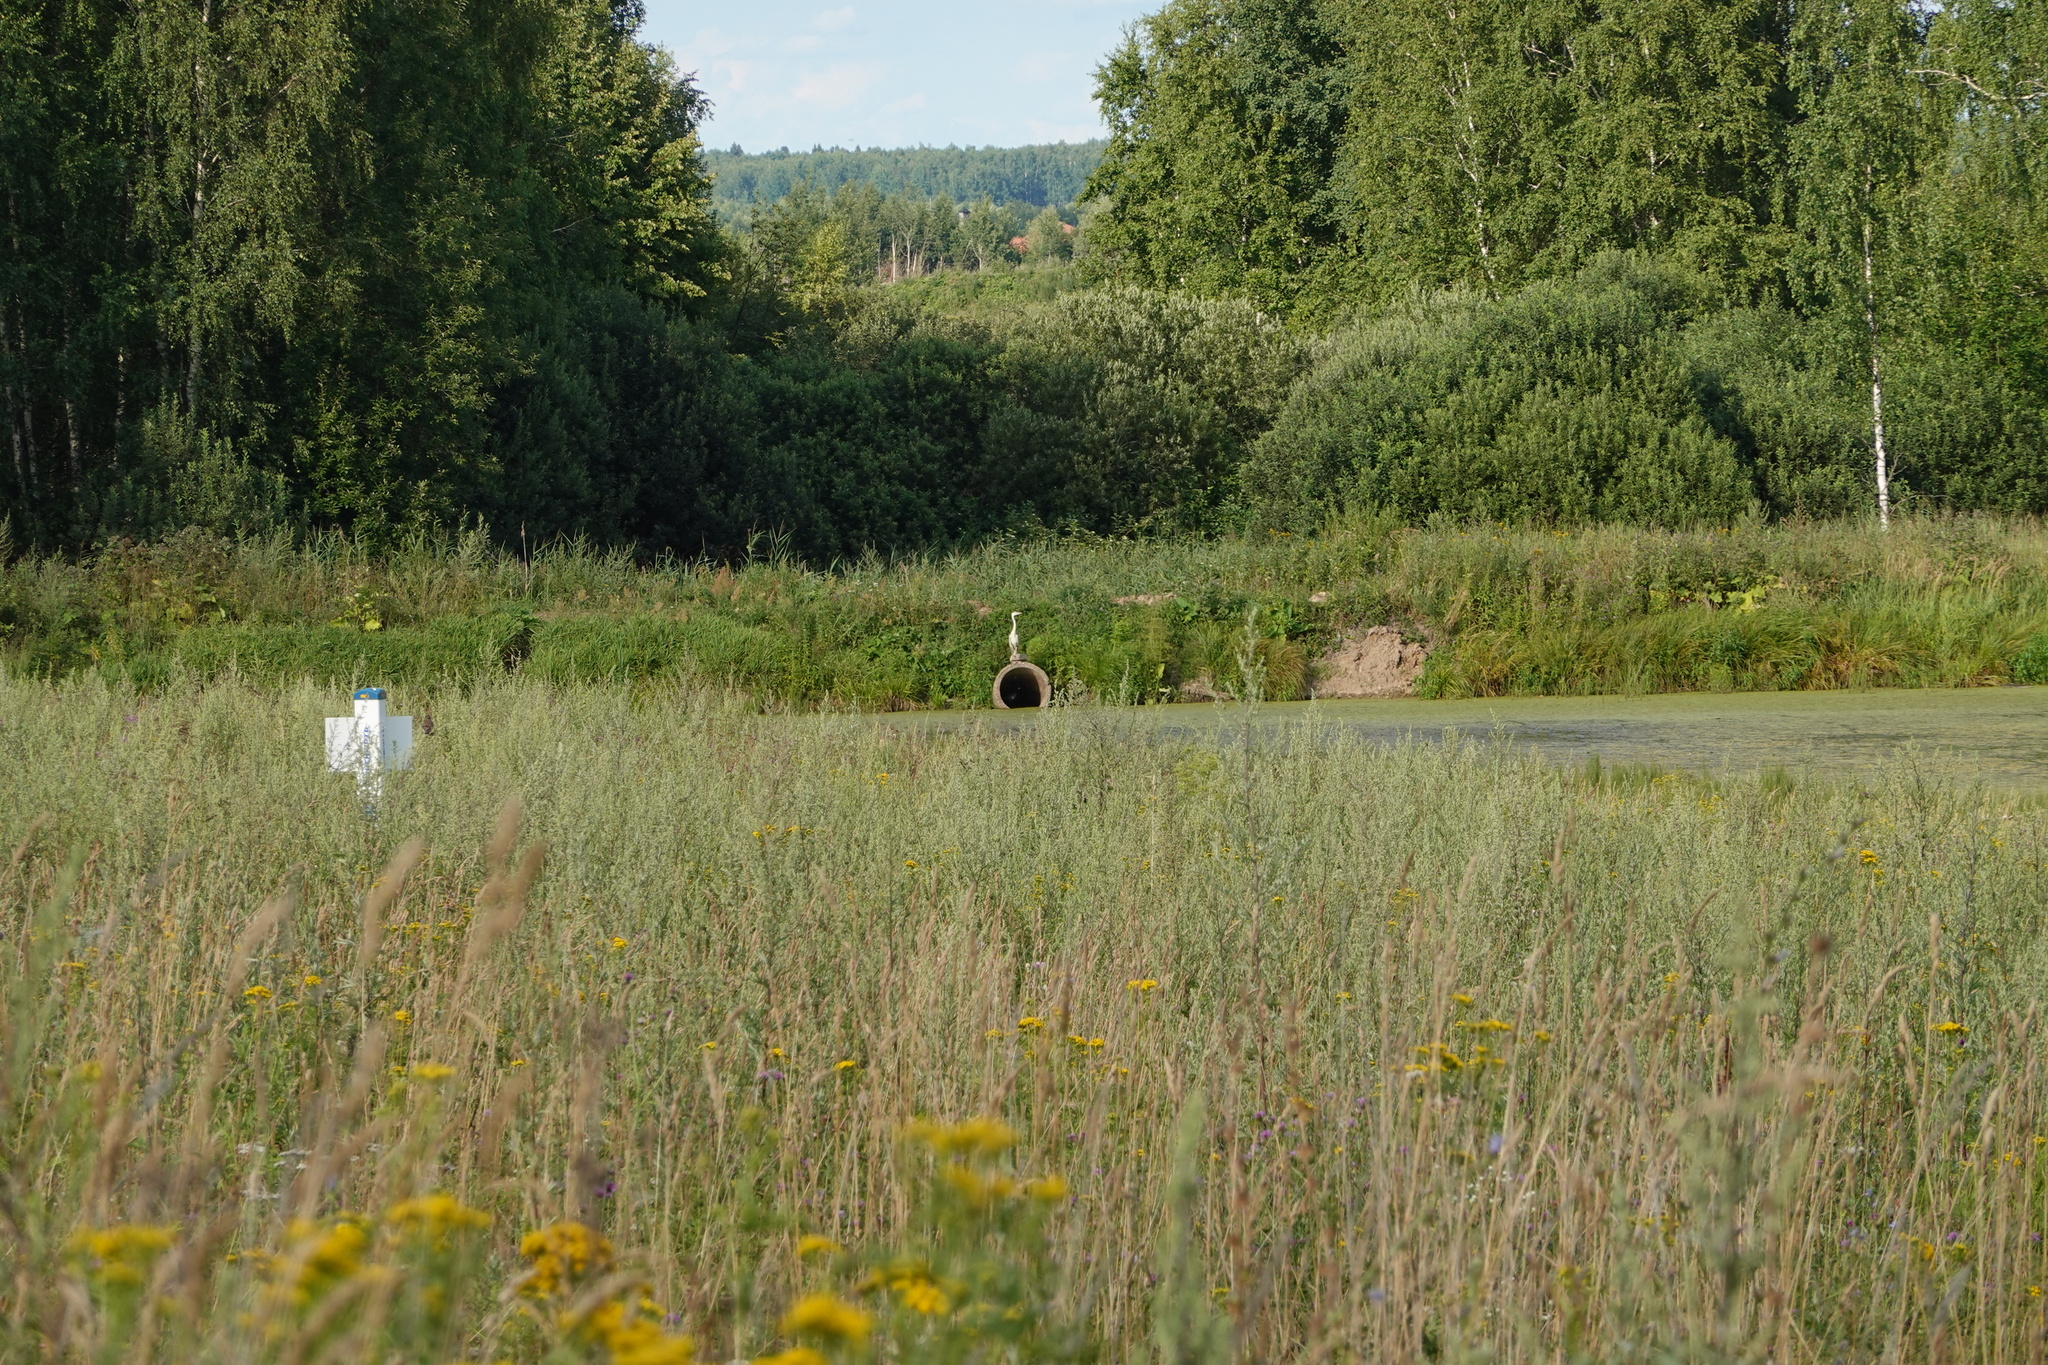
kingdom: Animalia
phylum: Chordata
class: Aves
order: Pelecaniformes
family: Ardeidae
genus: Ardea
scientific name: Ardea cinerea
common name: Grey heron
